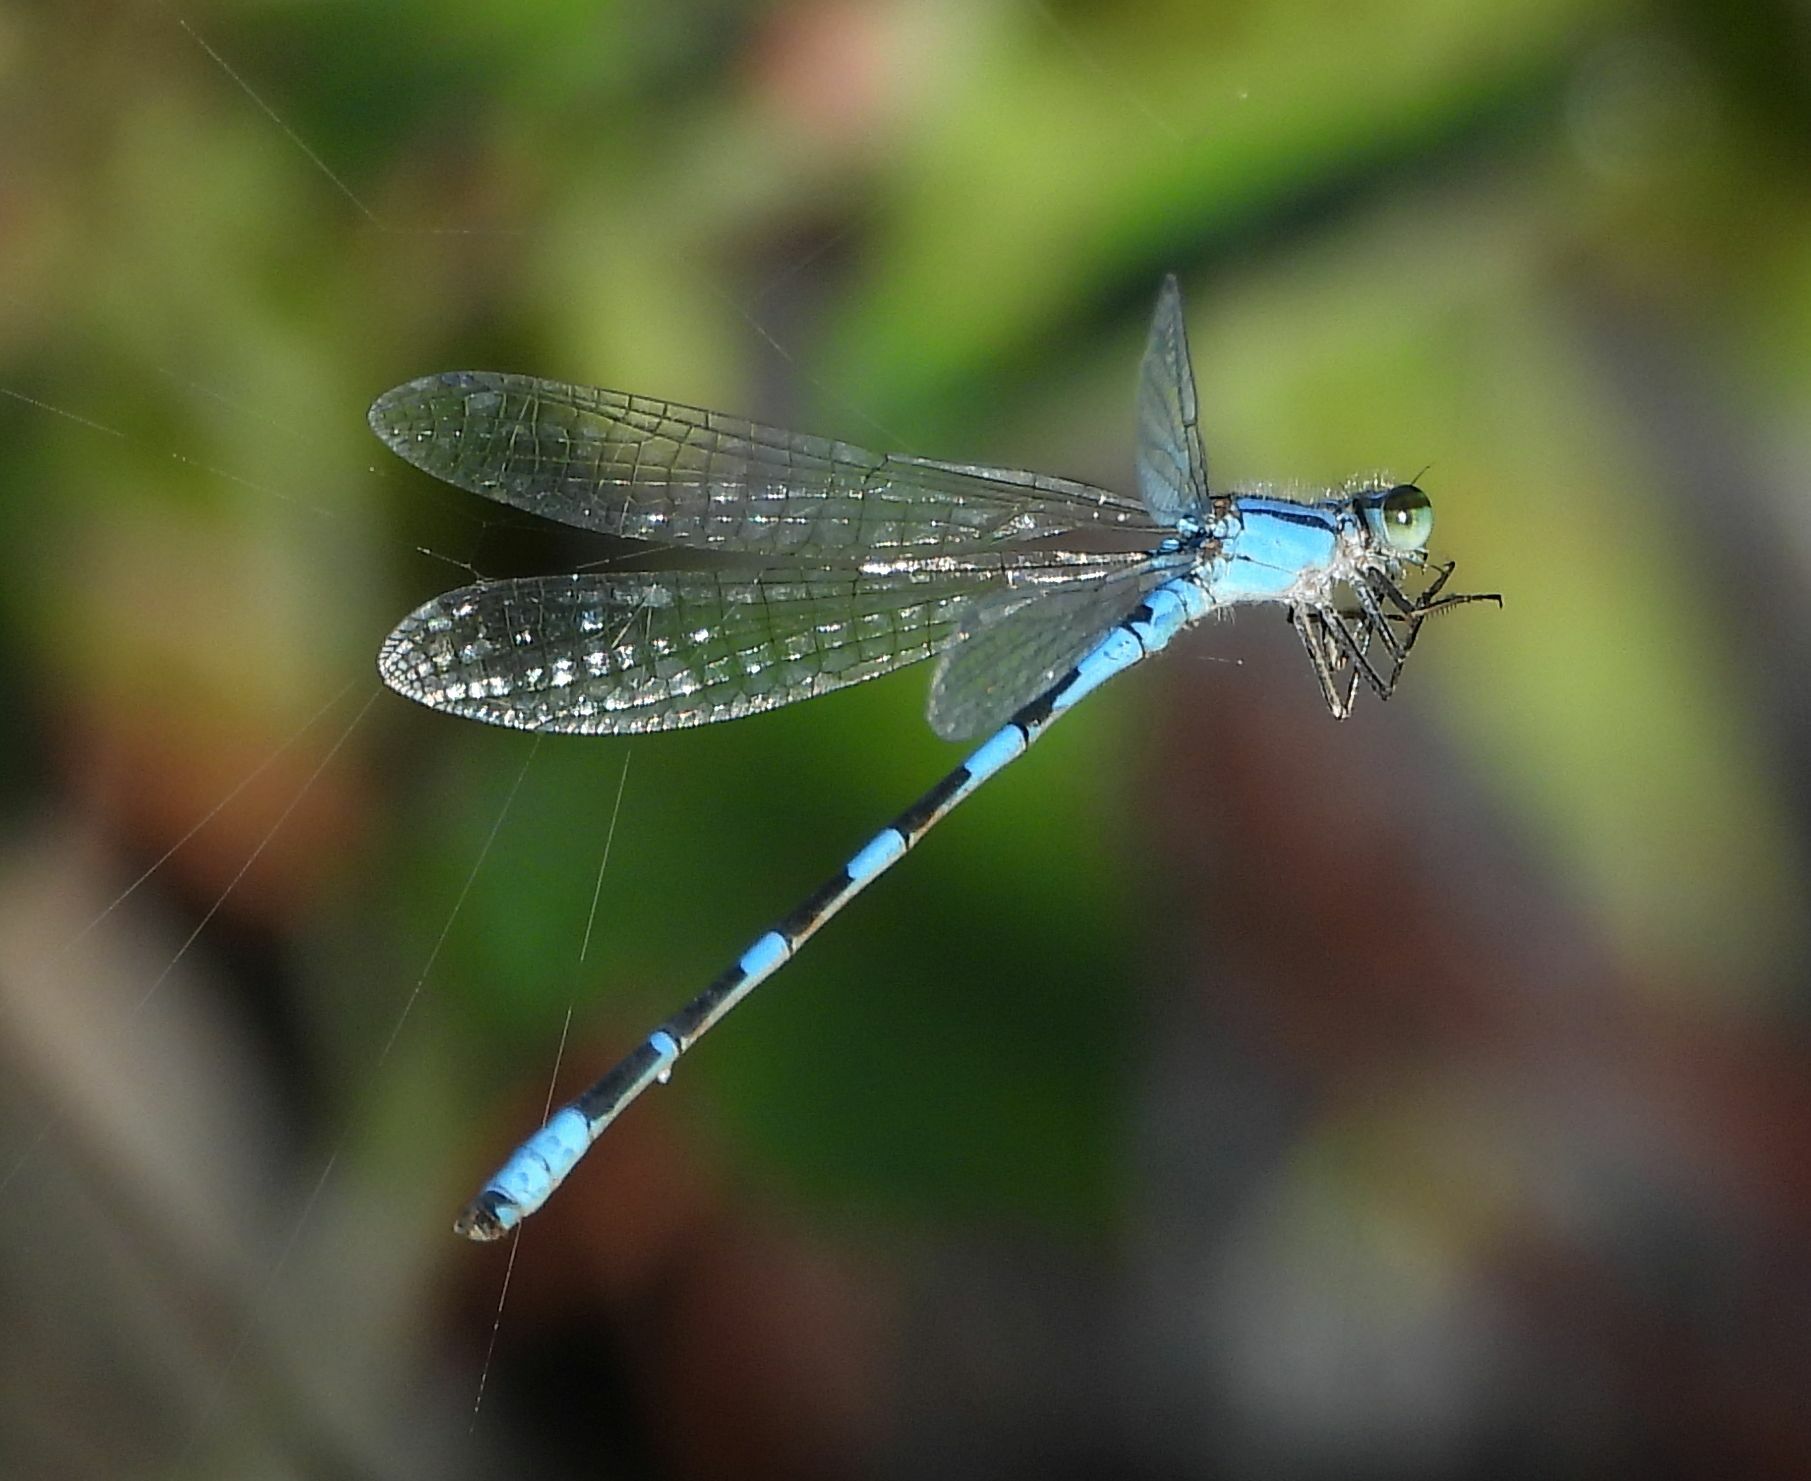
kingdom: Animalia
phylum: Arthropoda
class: Insecta
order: Odonata
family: Coenagrionidae
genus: Enallagma
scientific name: Enallagma carunculatum
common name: Tule bluet
